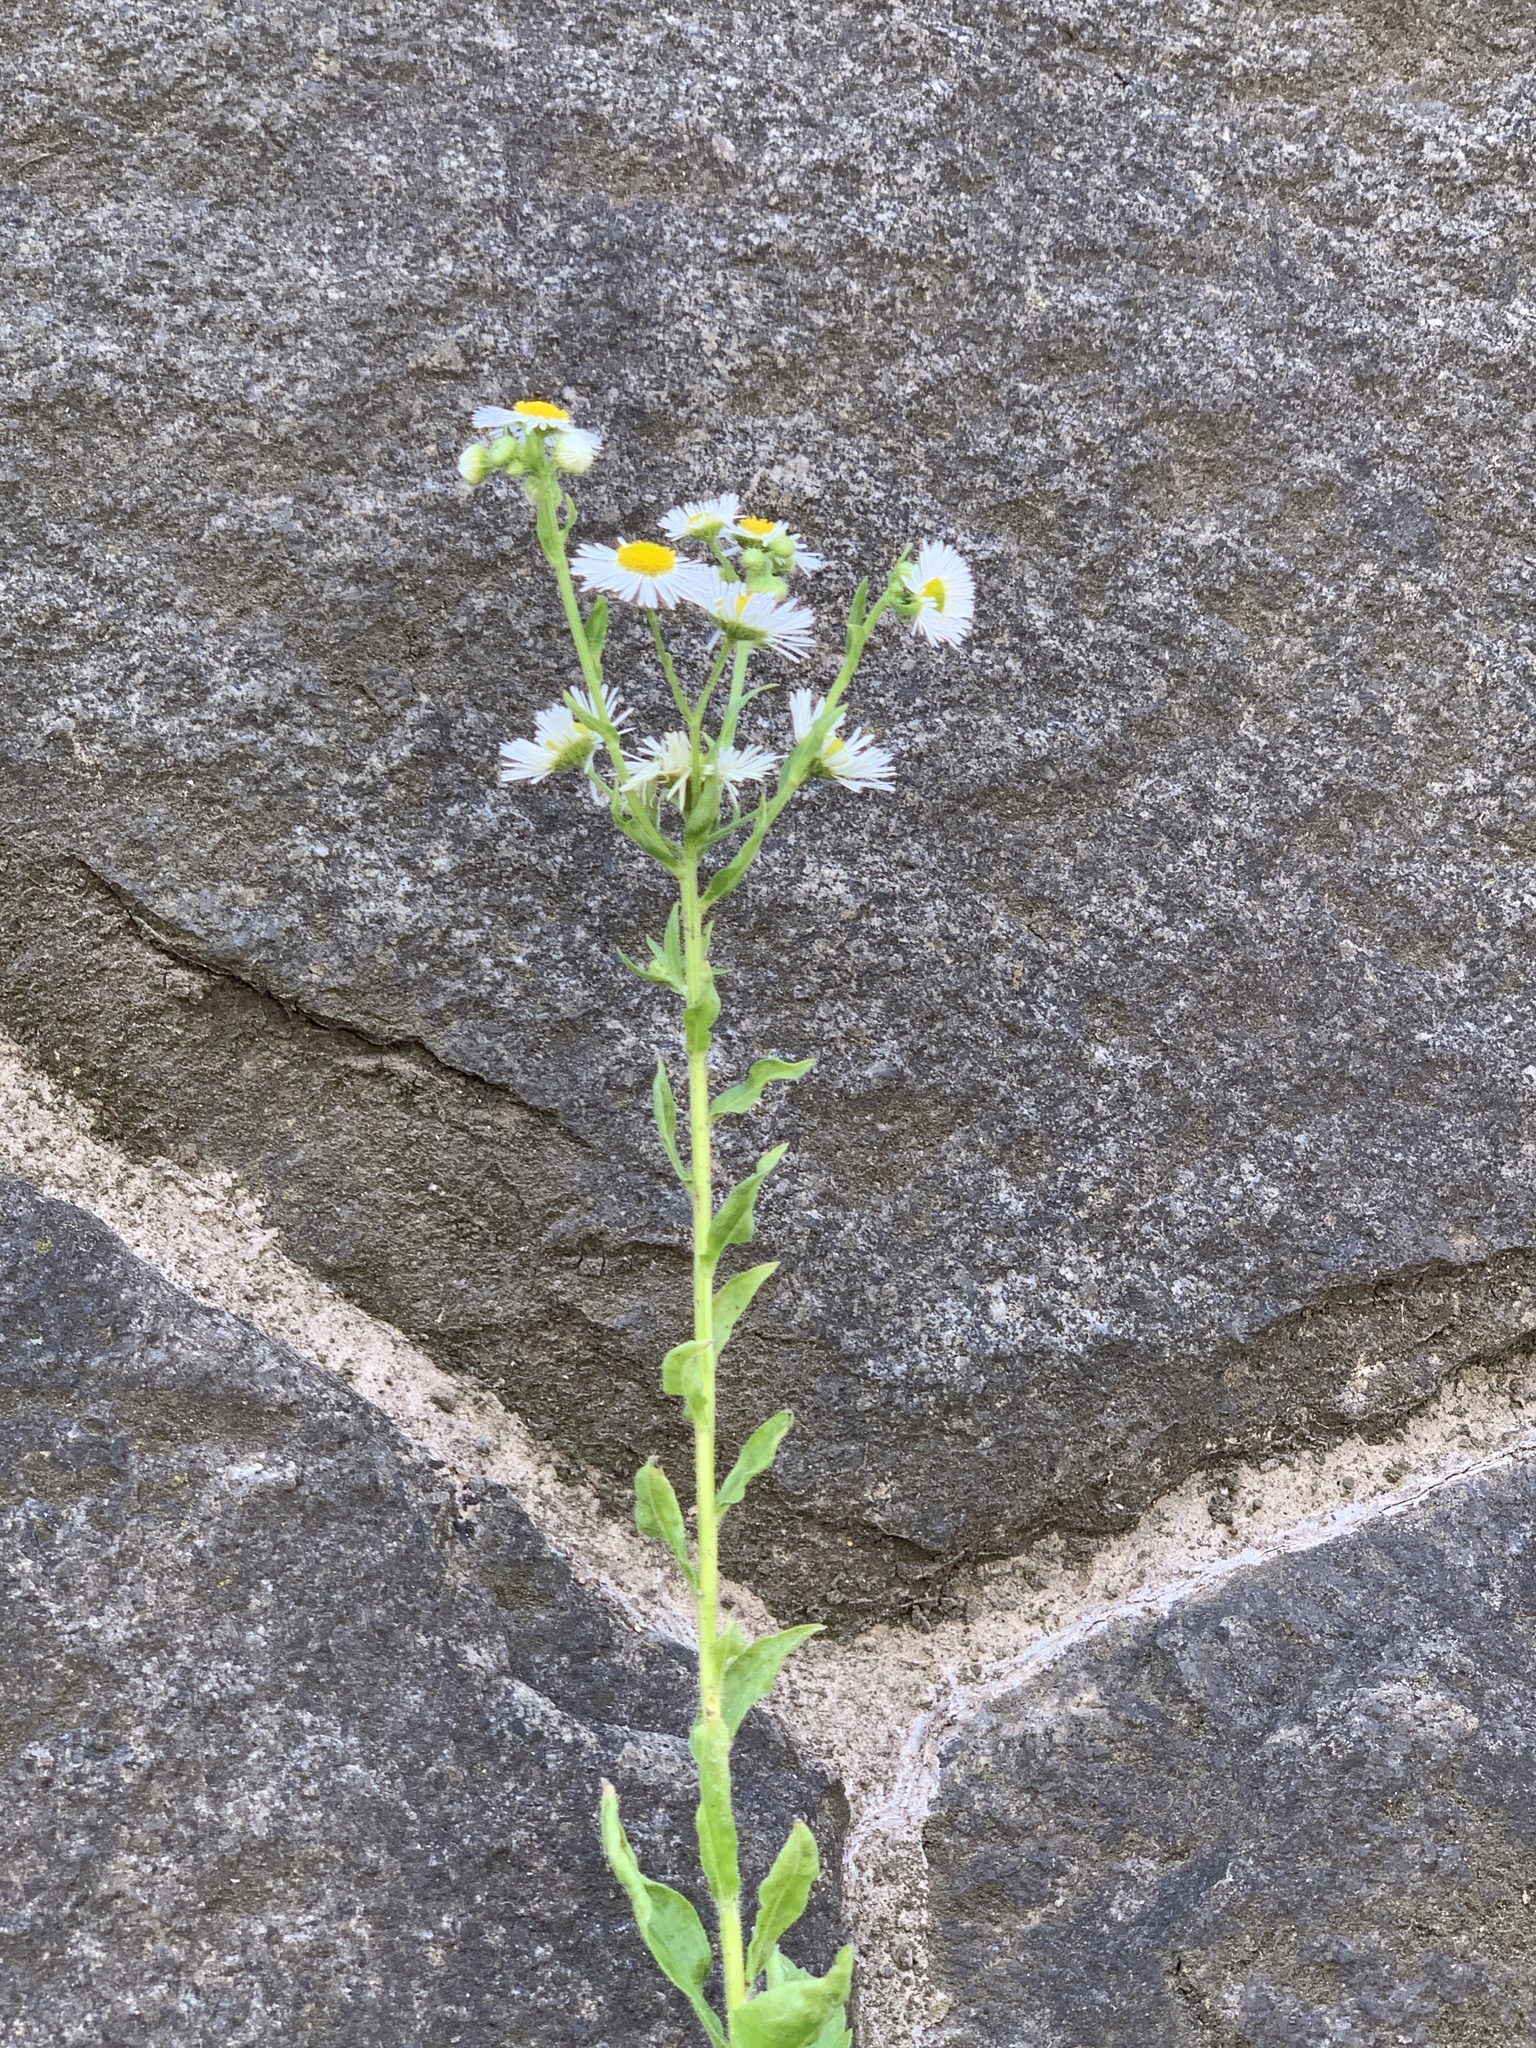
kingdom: Plantae
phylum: Tracheophyta
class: Magnoliopsida
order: Asterales
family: Asteraceae
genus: Erigeron
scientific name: Erigeron annuus
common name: Tall fleabane
